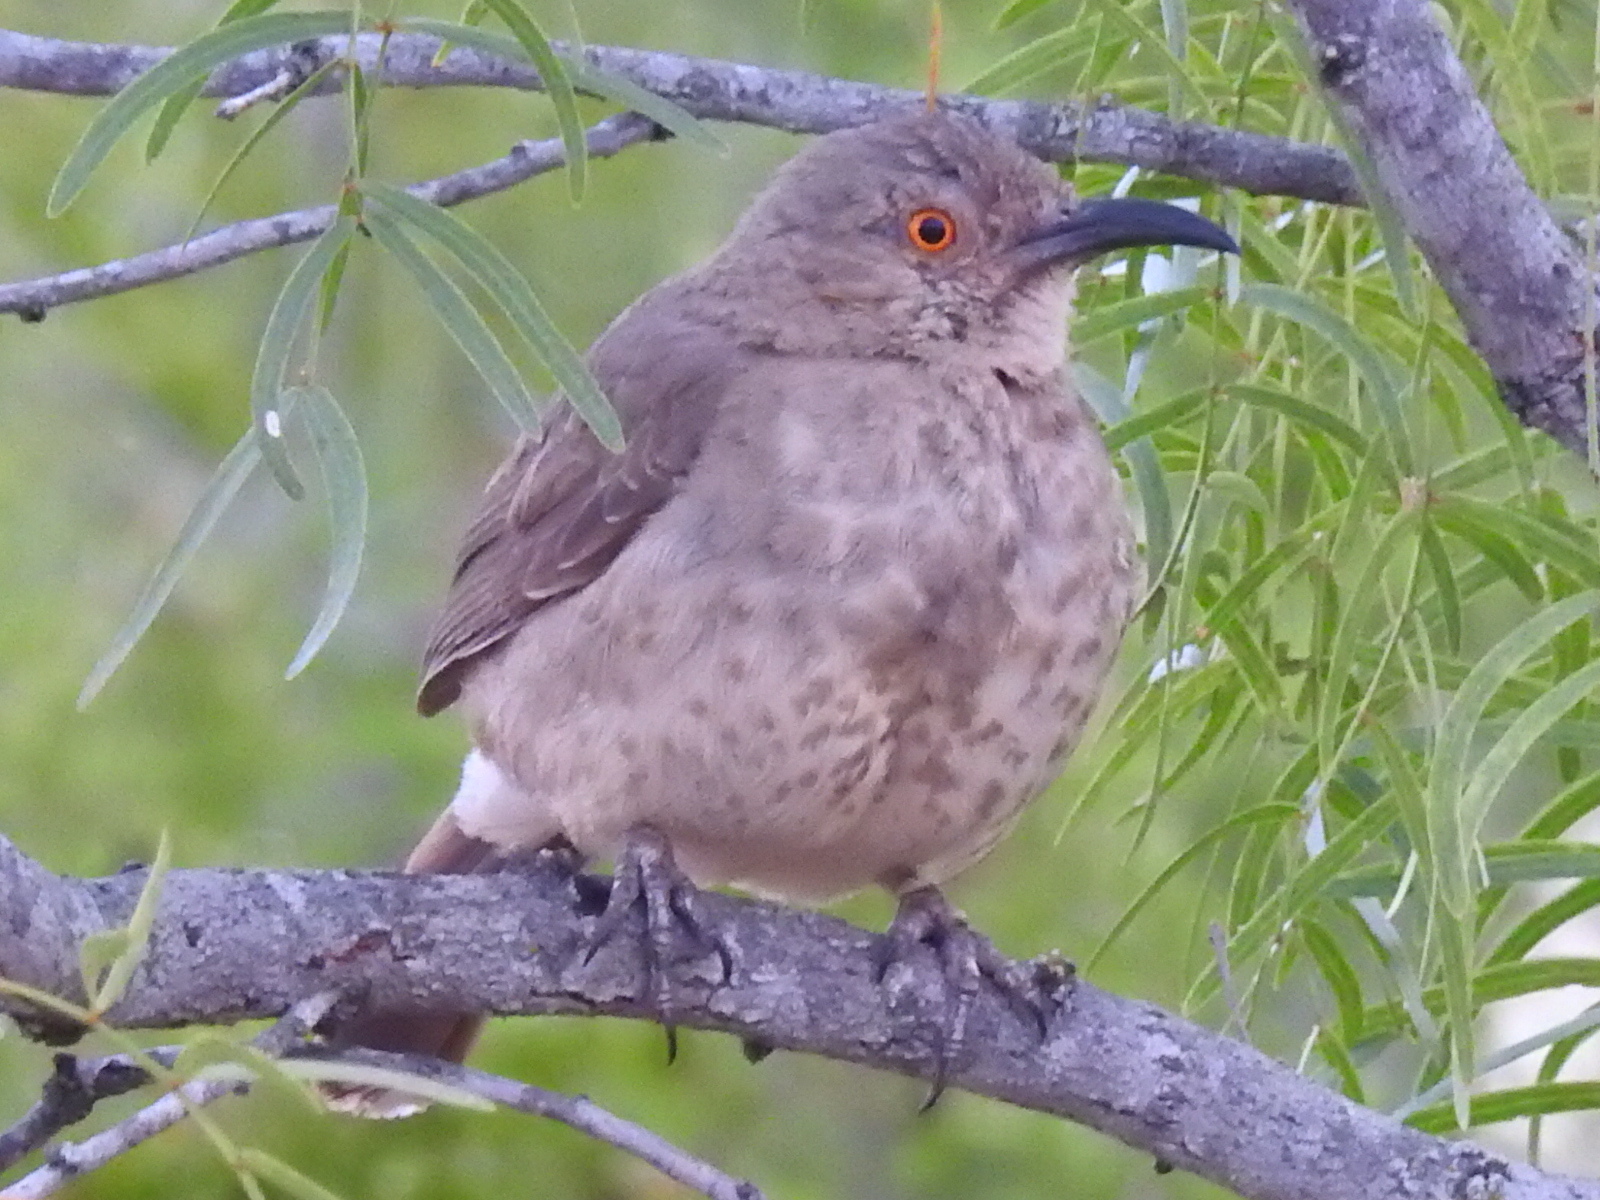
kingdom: Animalia
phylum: Chordata
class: Aves
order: Passeriformes
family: Mimidae
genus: Toxostoma
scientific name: Toxostoma curvirostre
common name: Curve-billed thrasher
